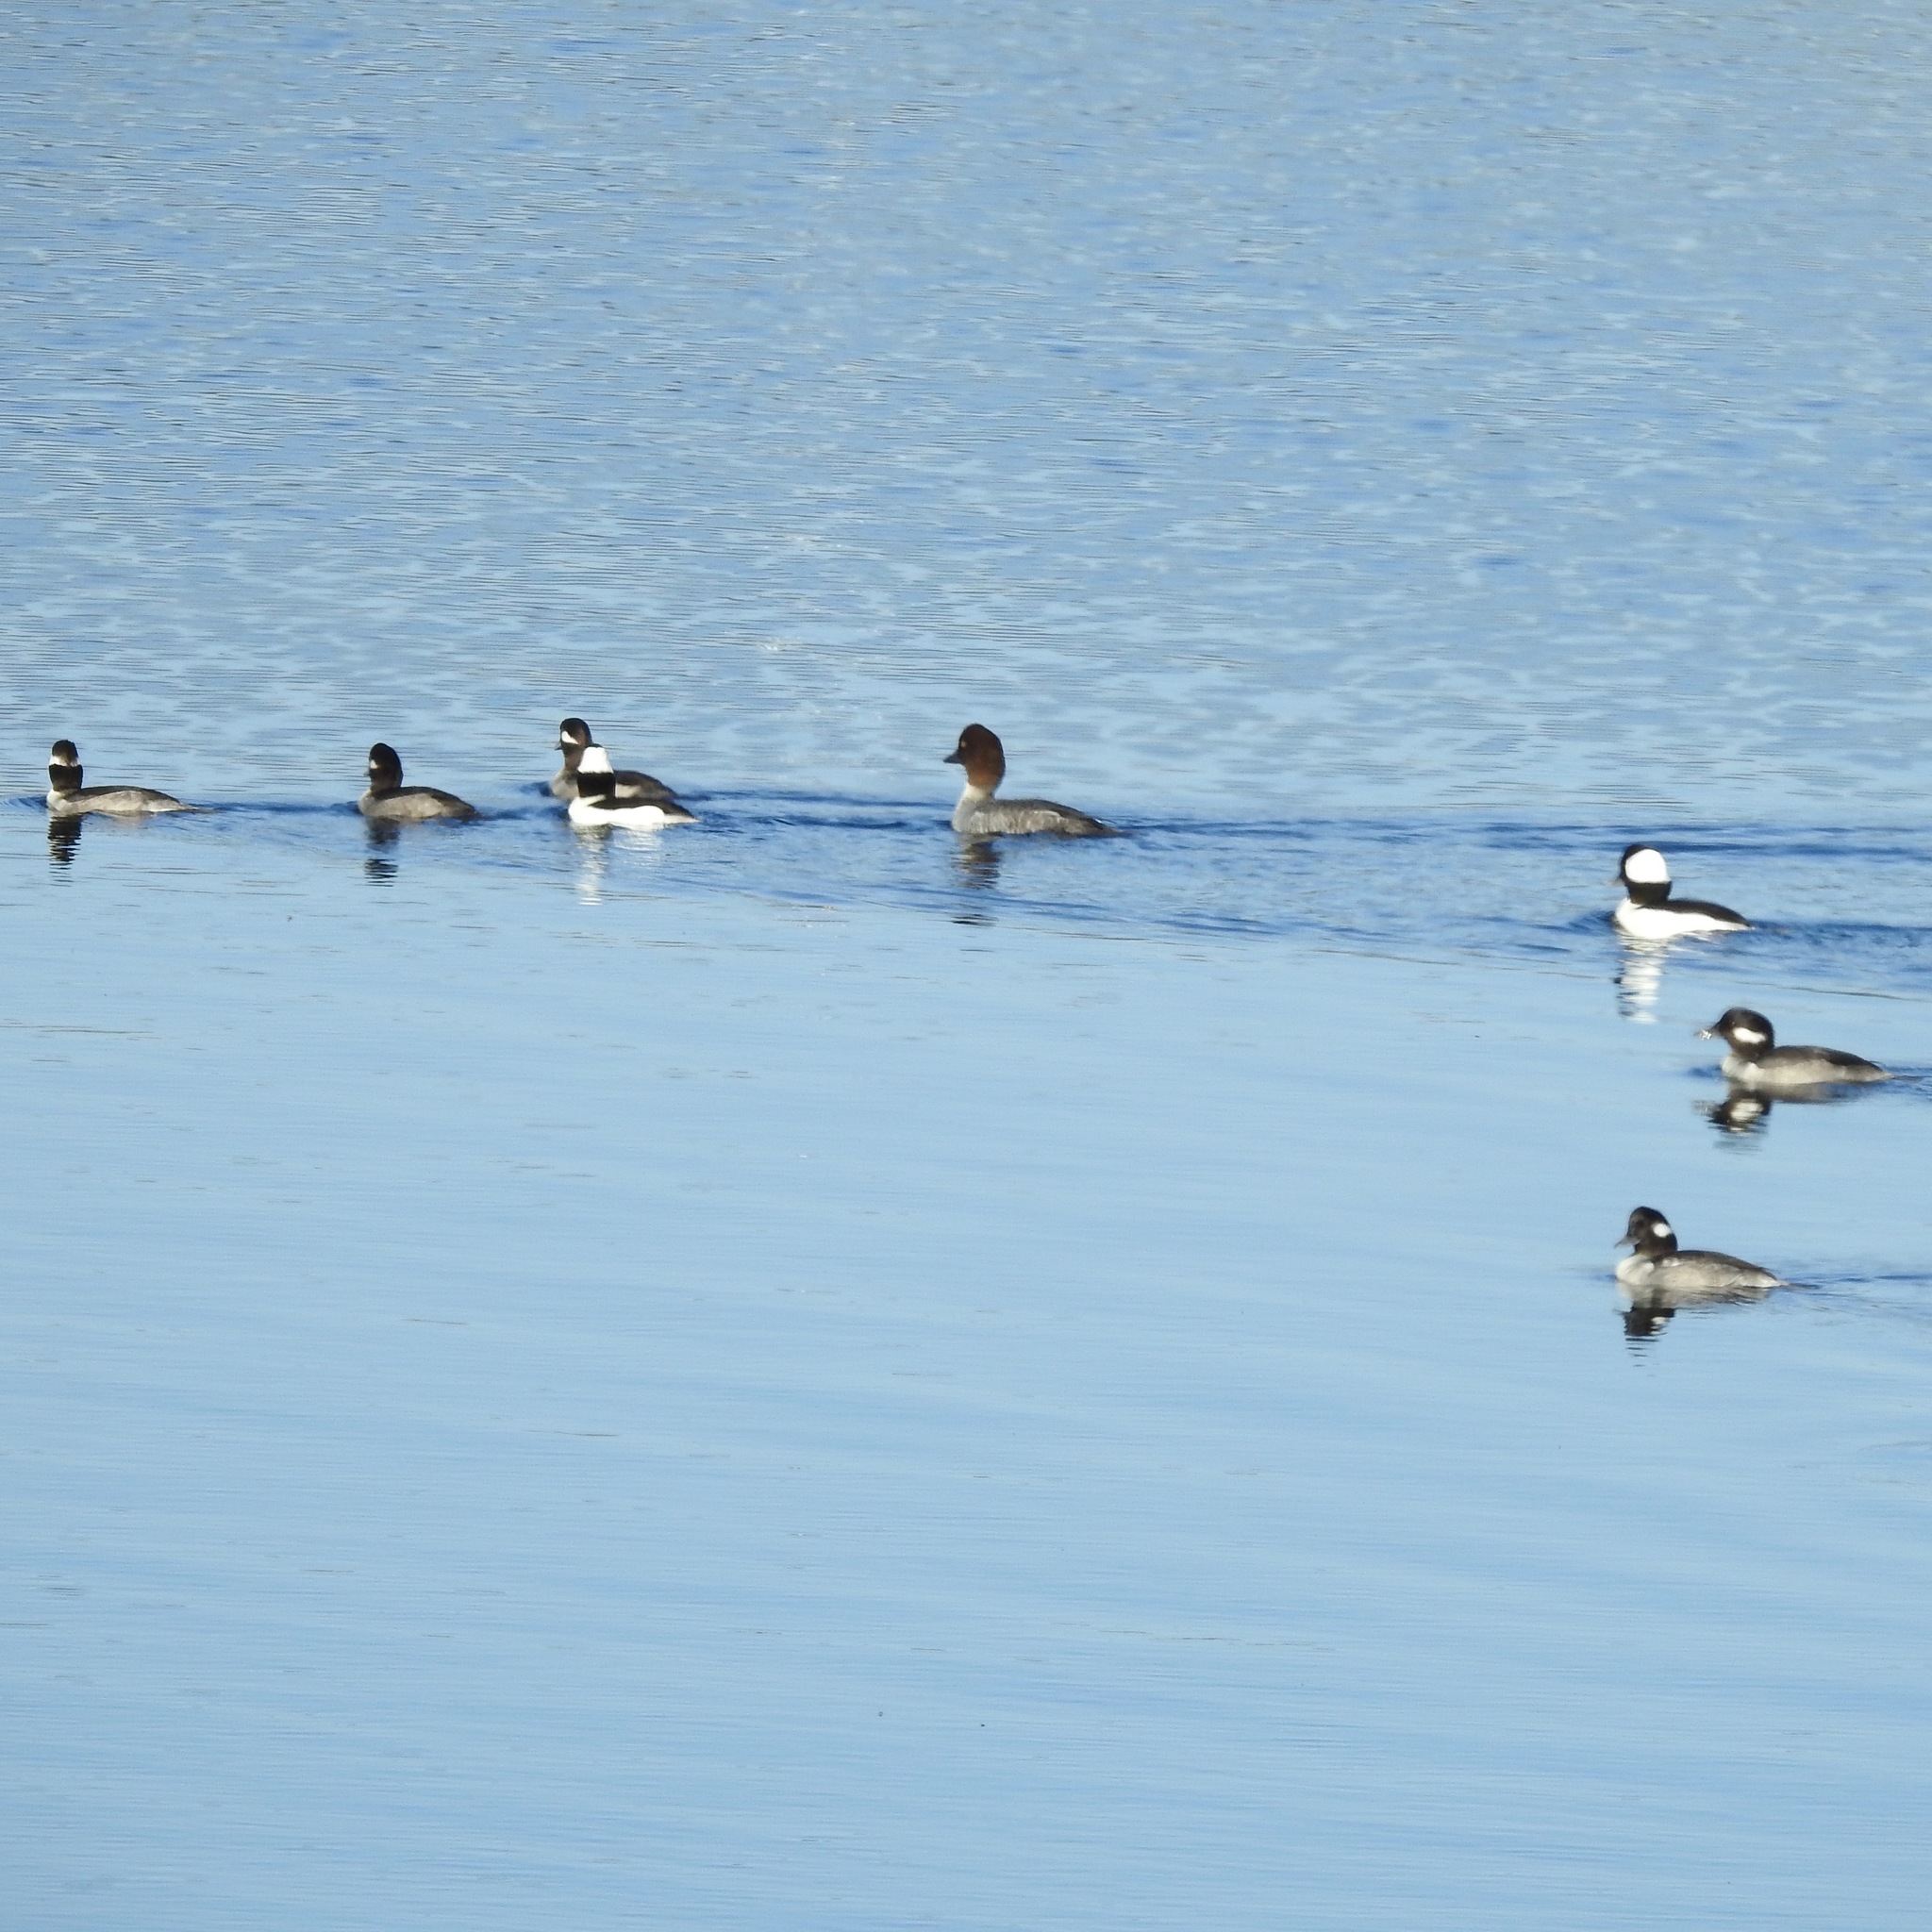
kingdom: Animalia
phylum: Chordata
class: Aves
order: Anseriformes
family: Anatidae
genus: Bucephala
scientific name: Bucephala albeola
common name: Bufflehead
